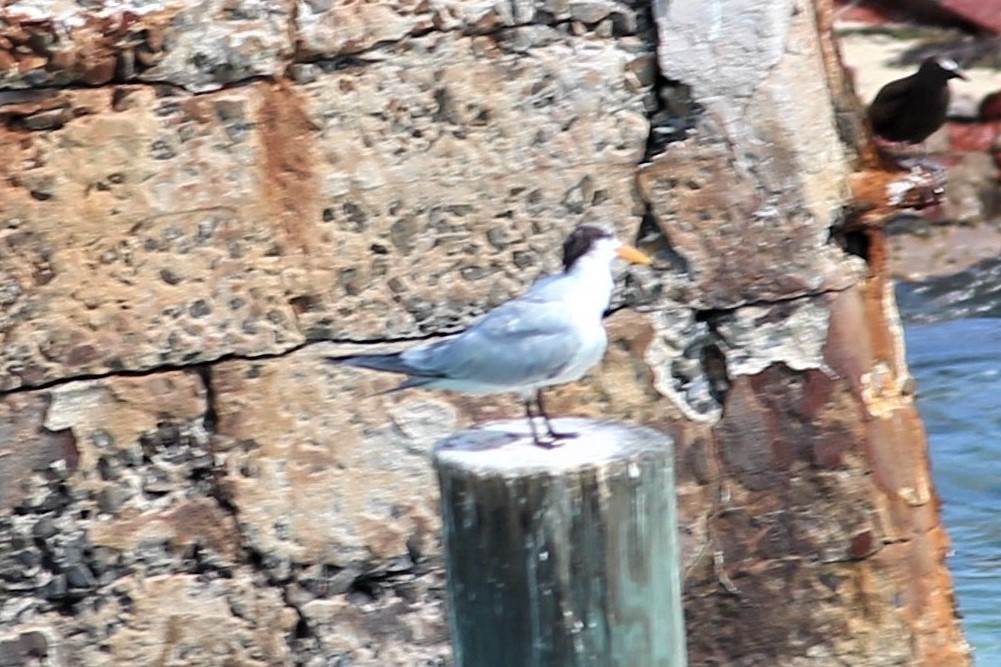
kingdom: Animalia
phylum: Chordata
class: Aves
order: Charadriiformes
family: Laridae
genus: Thalasseus
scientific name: Thalasseus maximus
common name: Royal tern
